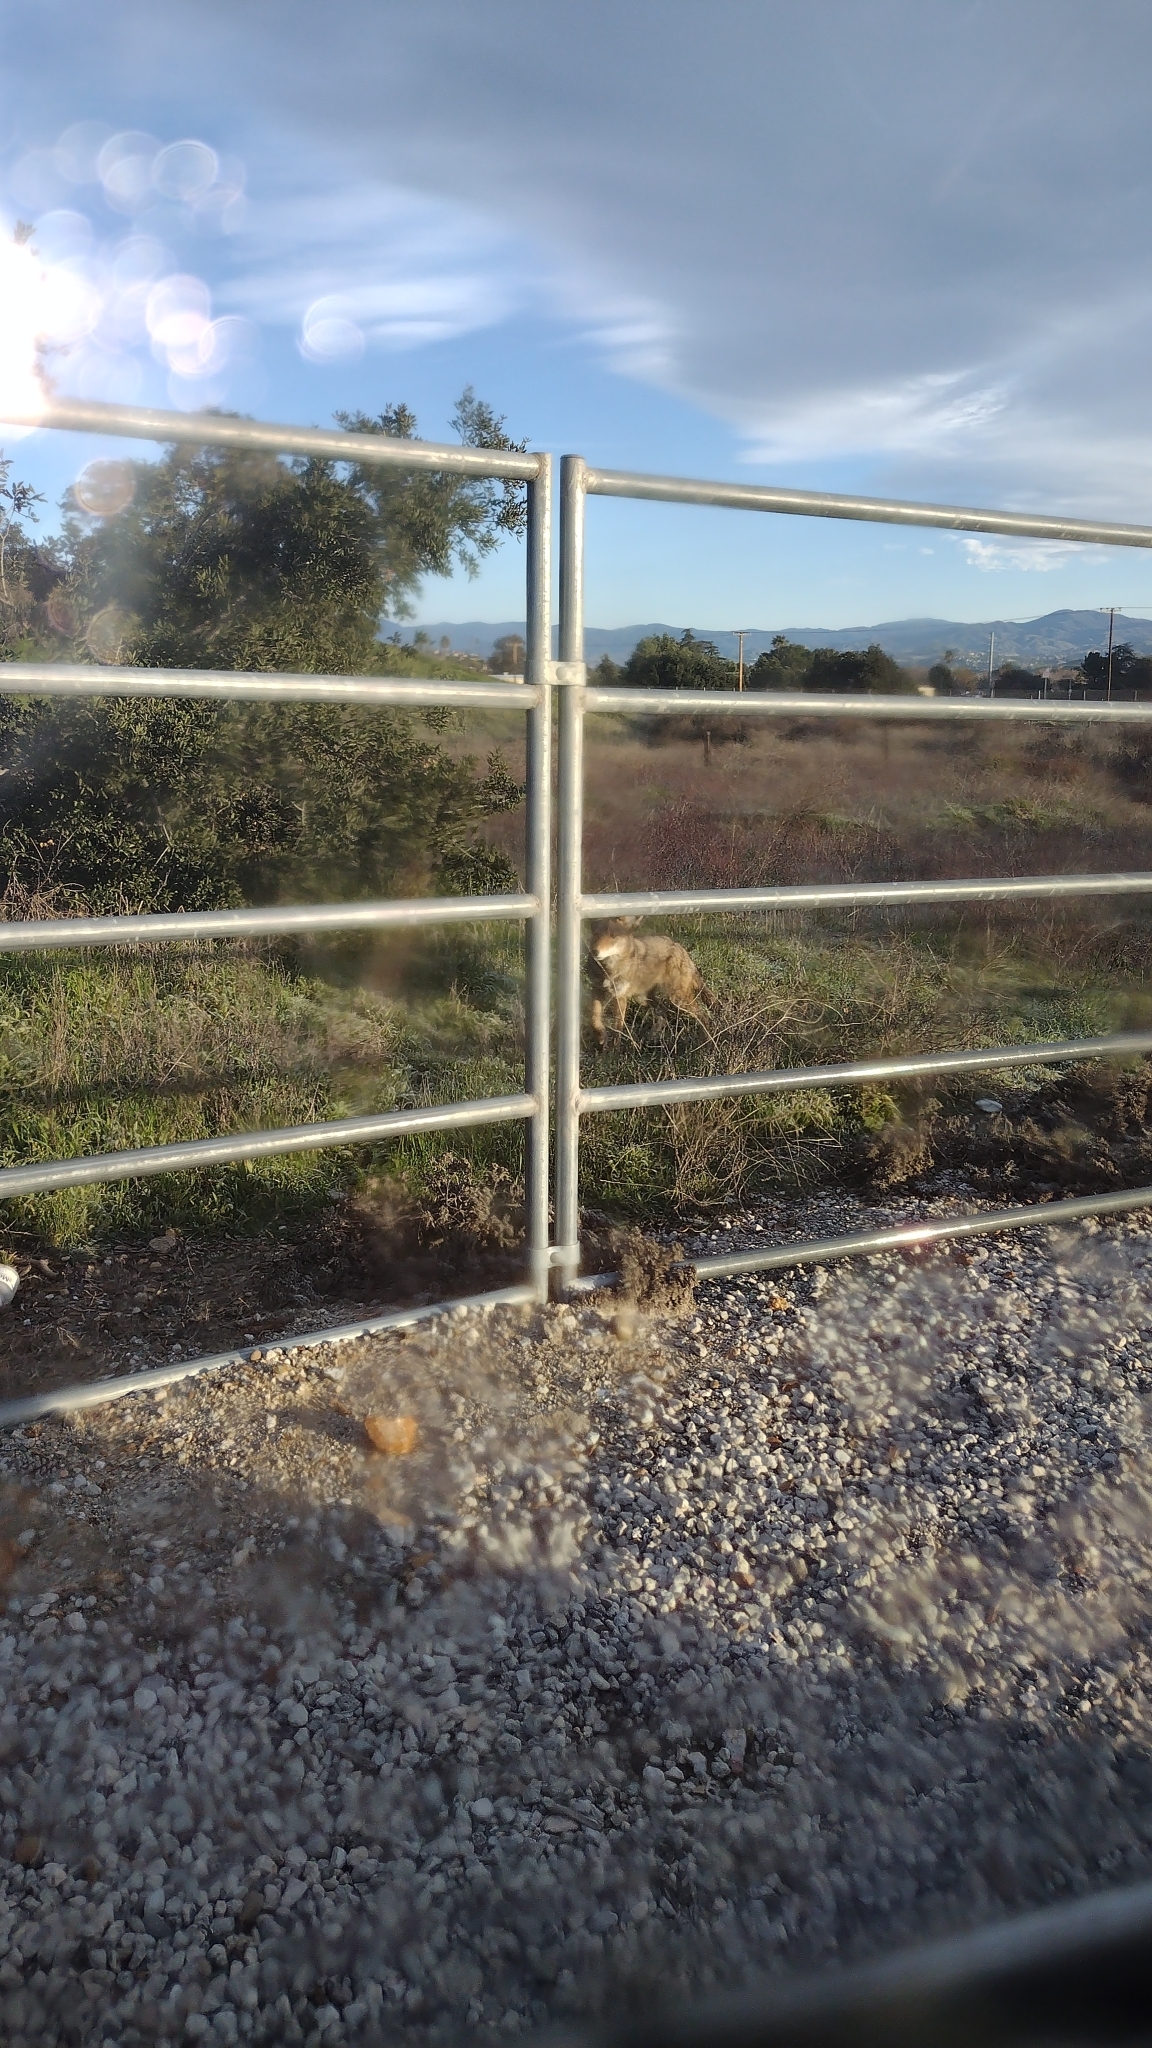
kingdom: Animalia
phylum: Chordata
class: Mammalia
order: Carnivora
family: Canidae
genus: Canis
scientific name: Canis latrans
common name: Coyote
